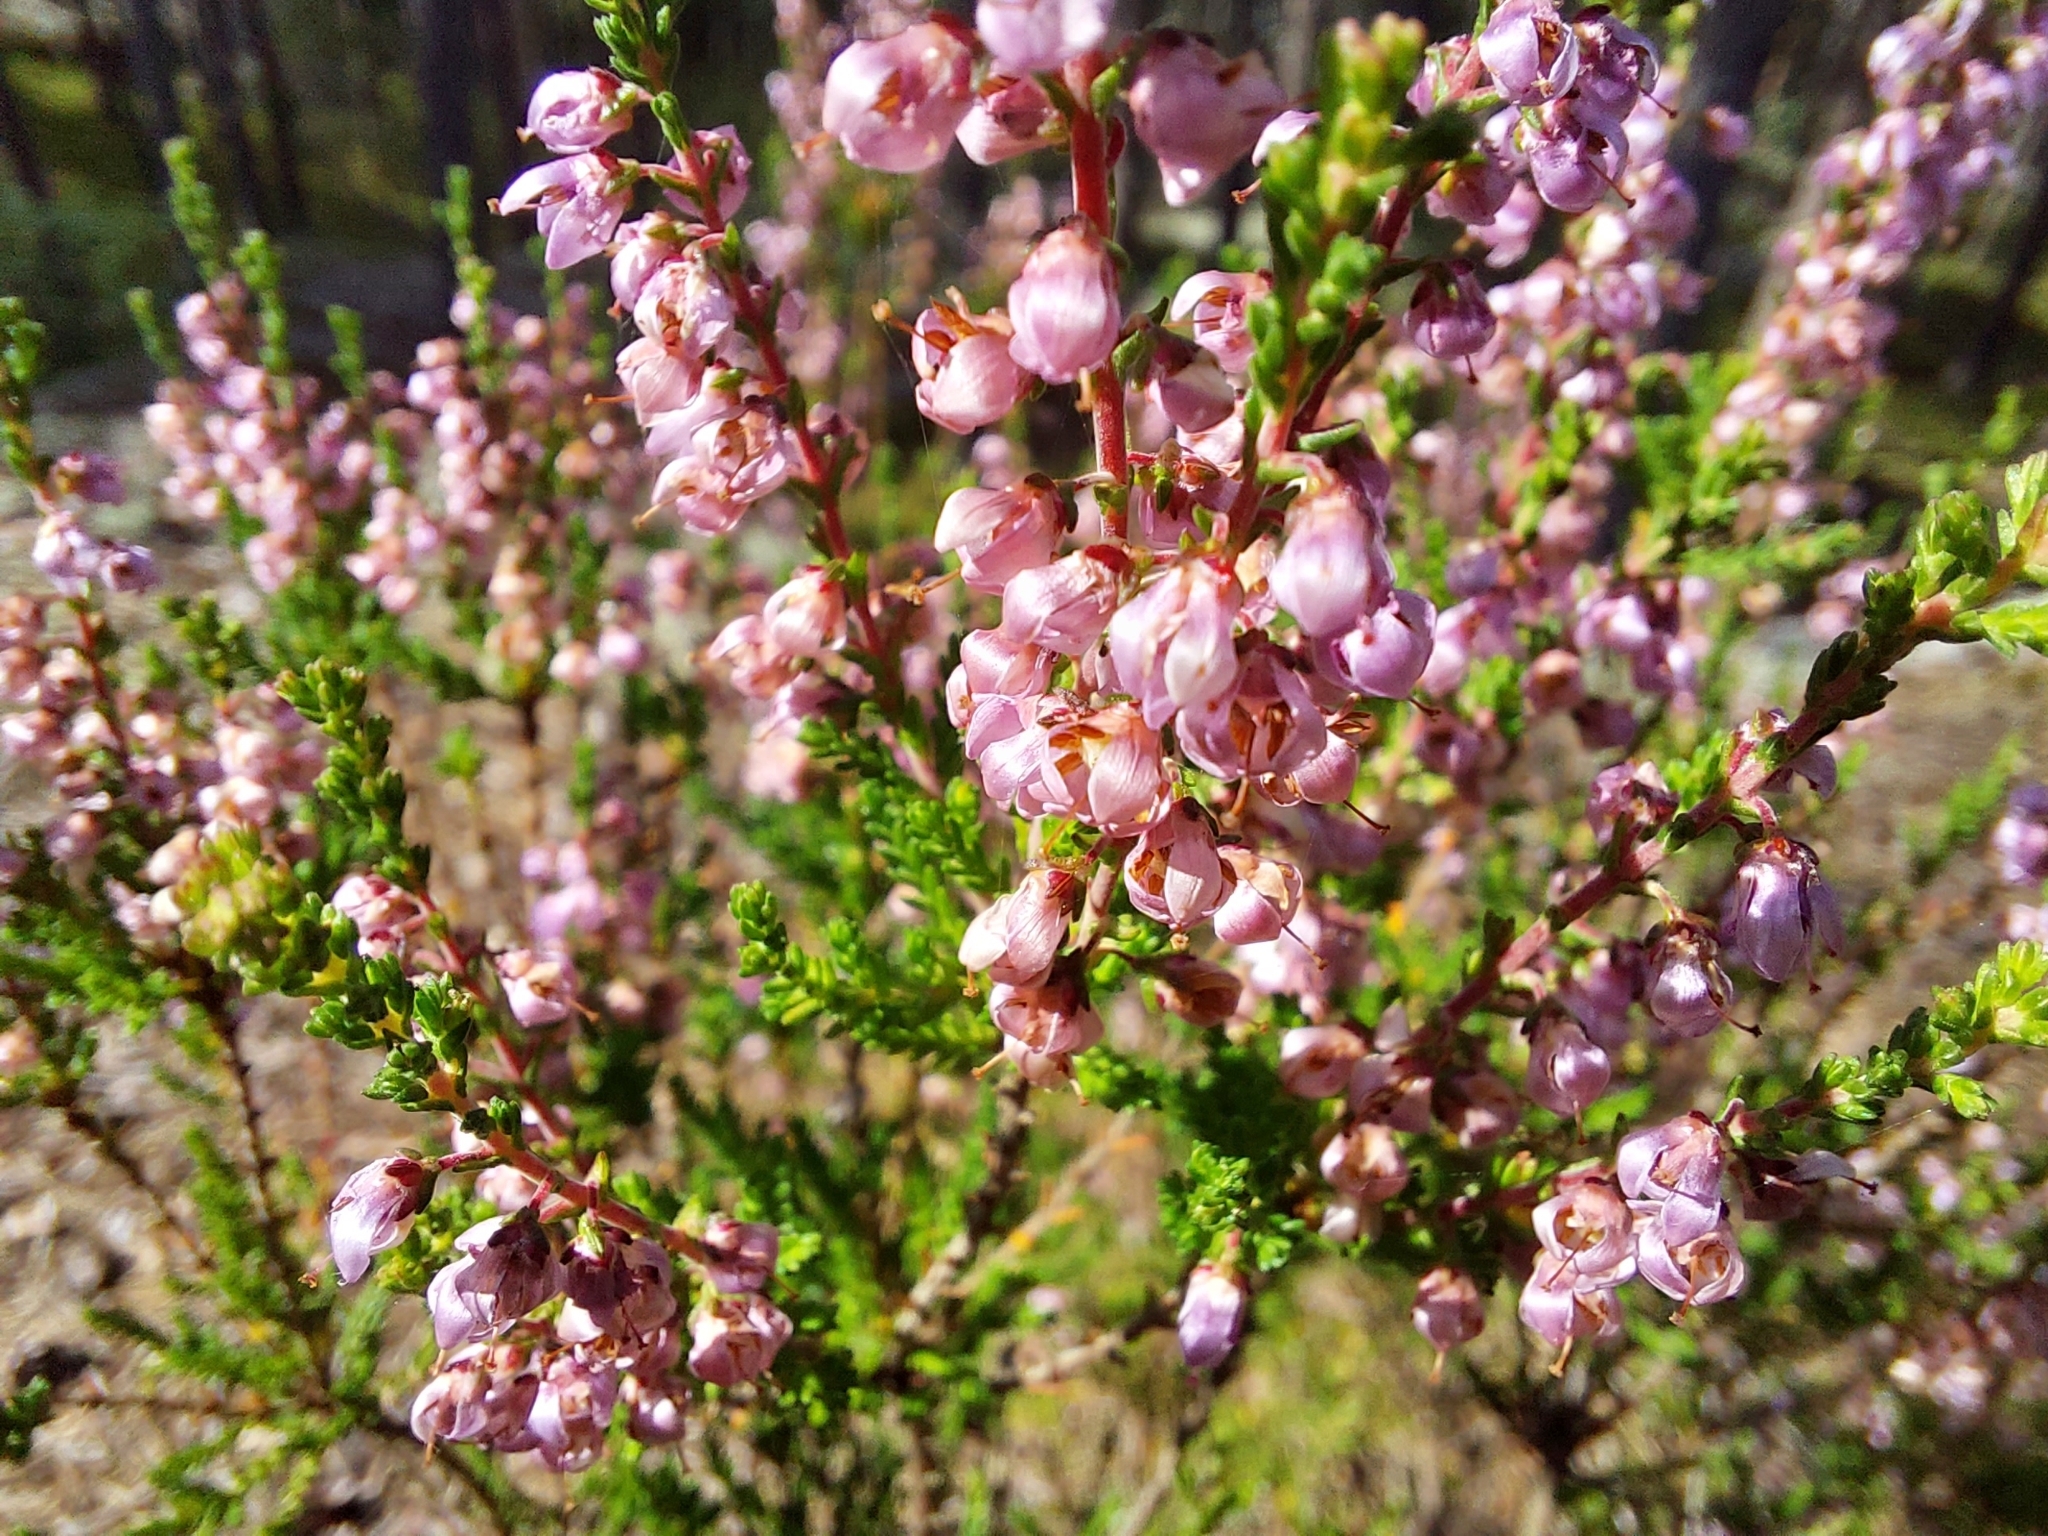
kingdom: Plantae
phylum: Tracheophyta
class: Magnoliopsida
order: Ericales
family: Ericaceae
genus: Calluna
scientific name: Calluna vulgaris
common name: Heather
